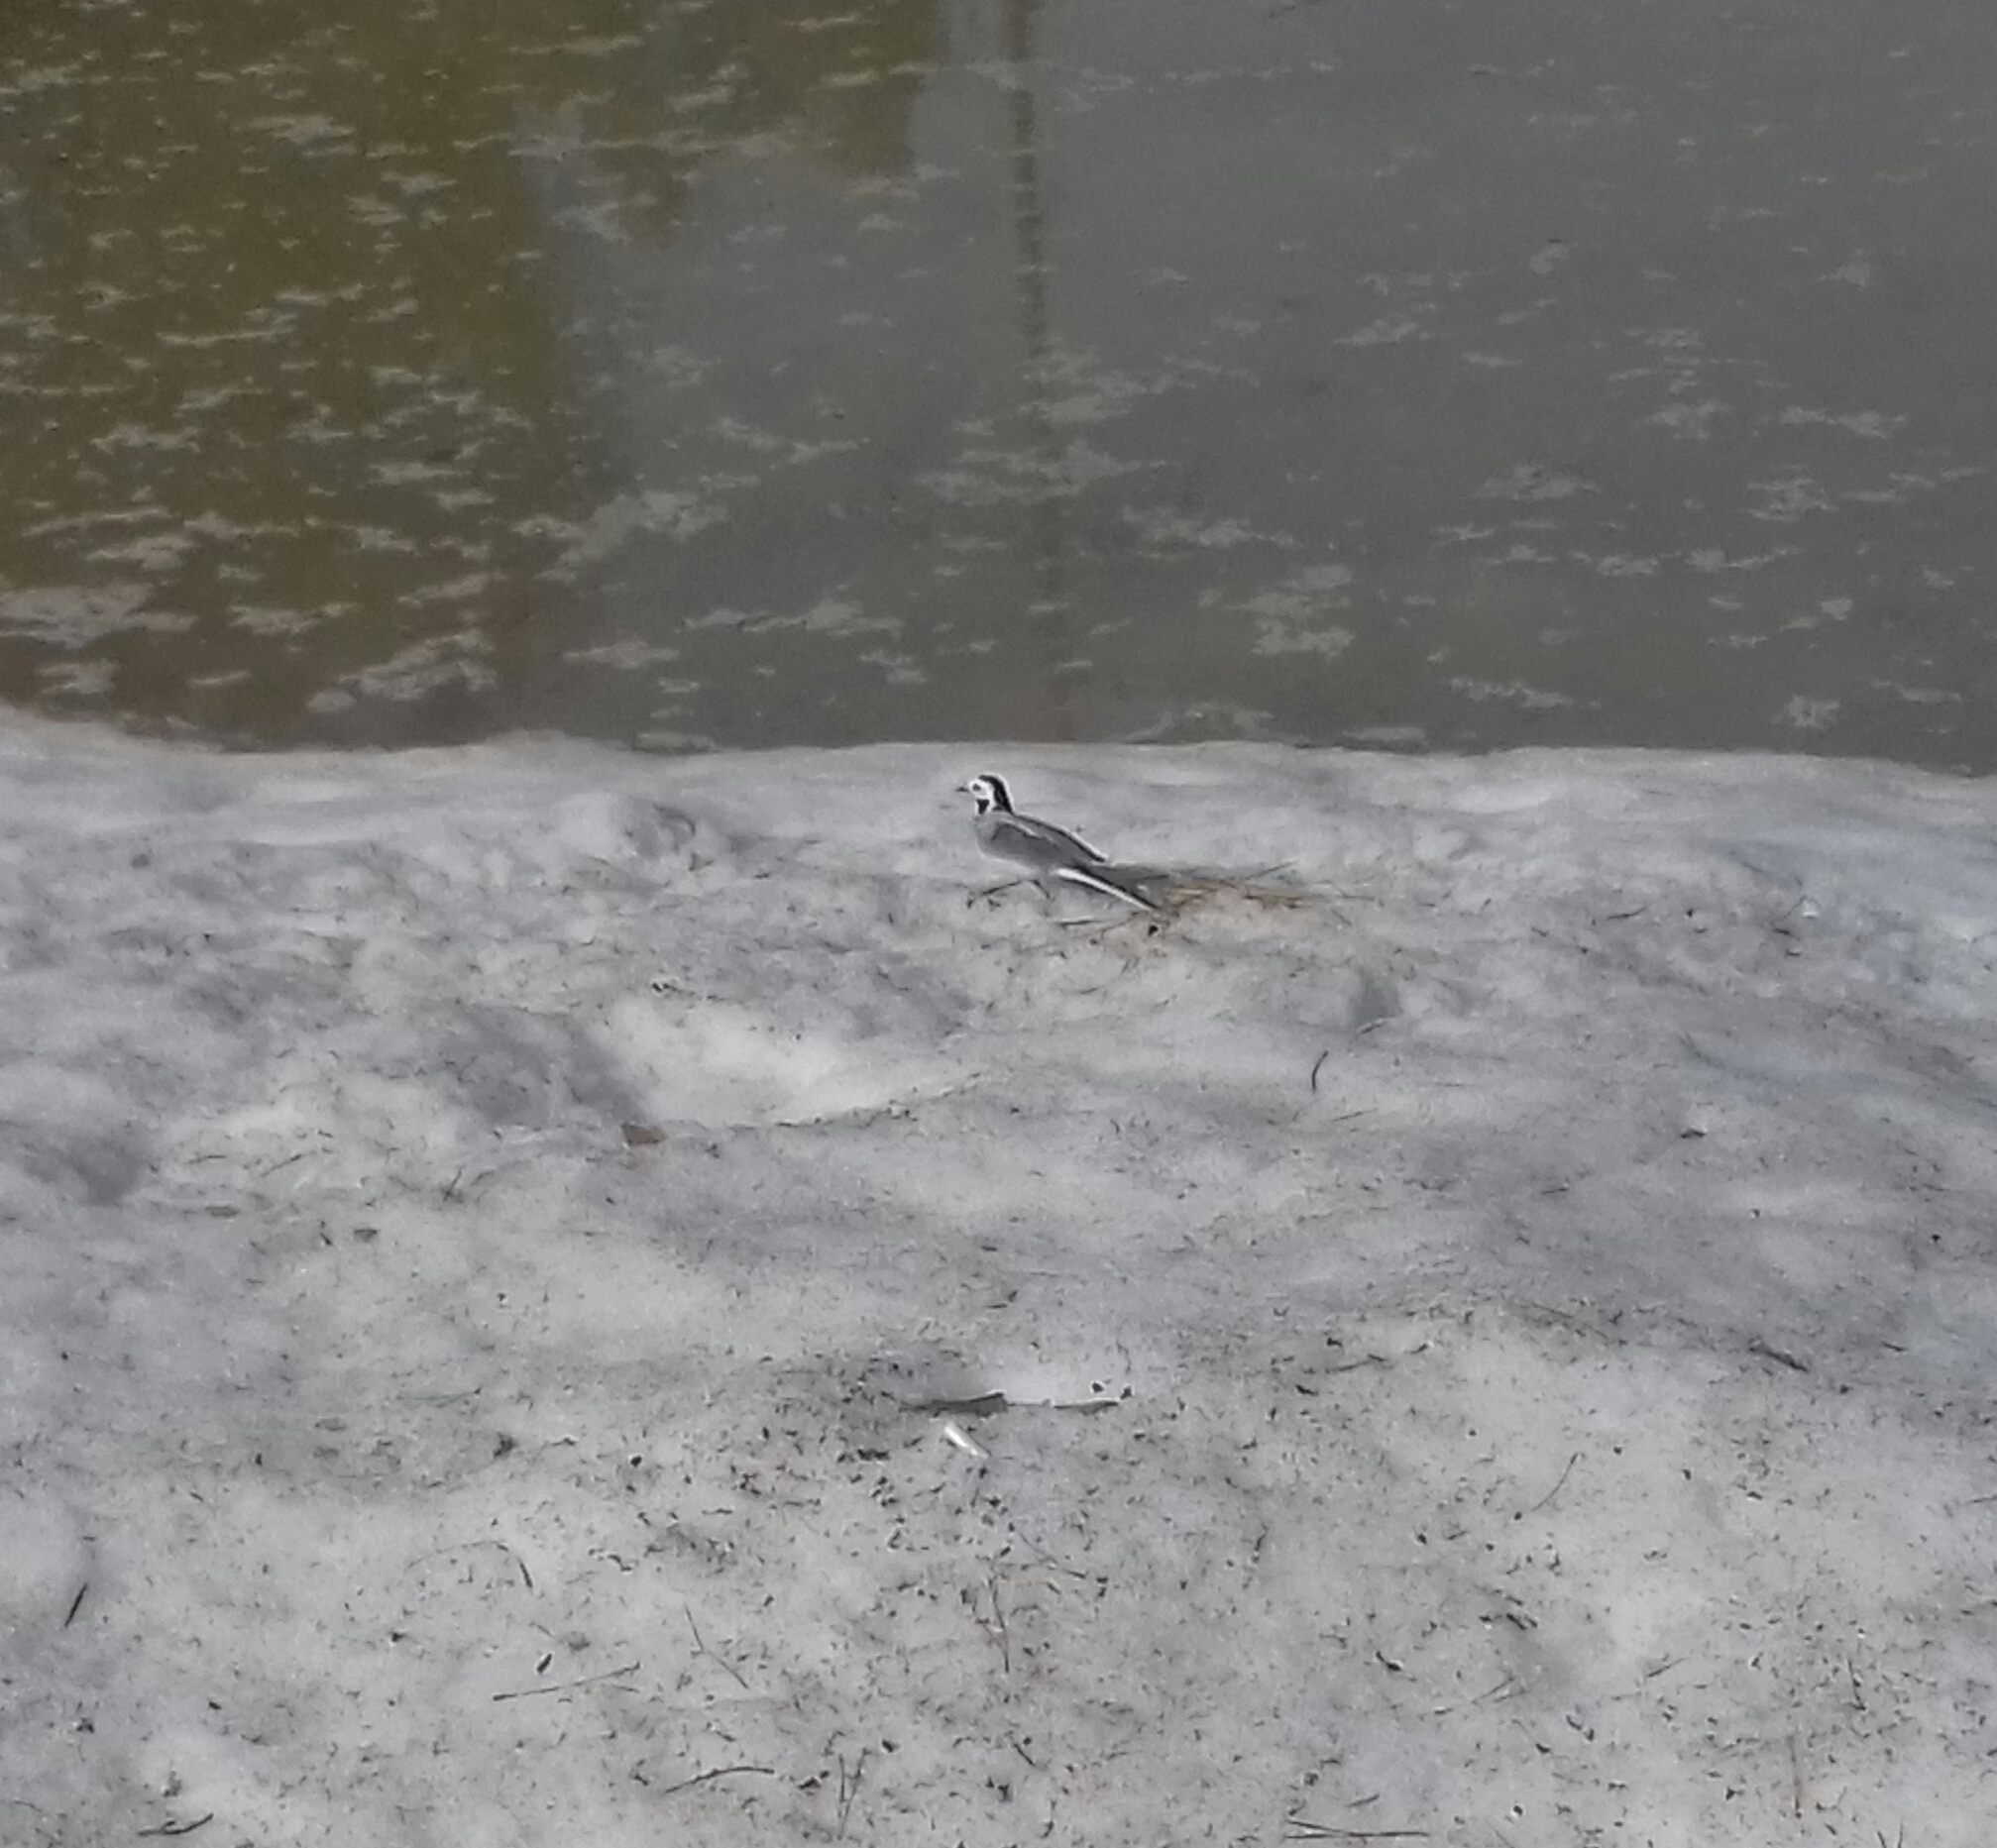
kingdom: Animalia
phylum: Chordata
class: Aves
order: Passeriformes
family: Motacillidae
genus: Motacilla
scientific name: Motacilla alba
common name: White wagtail
